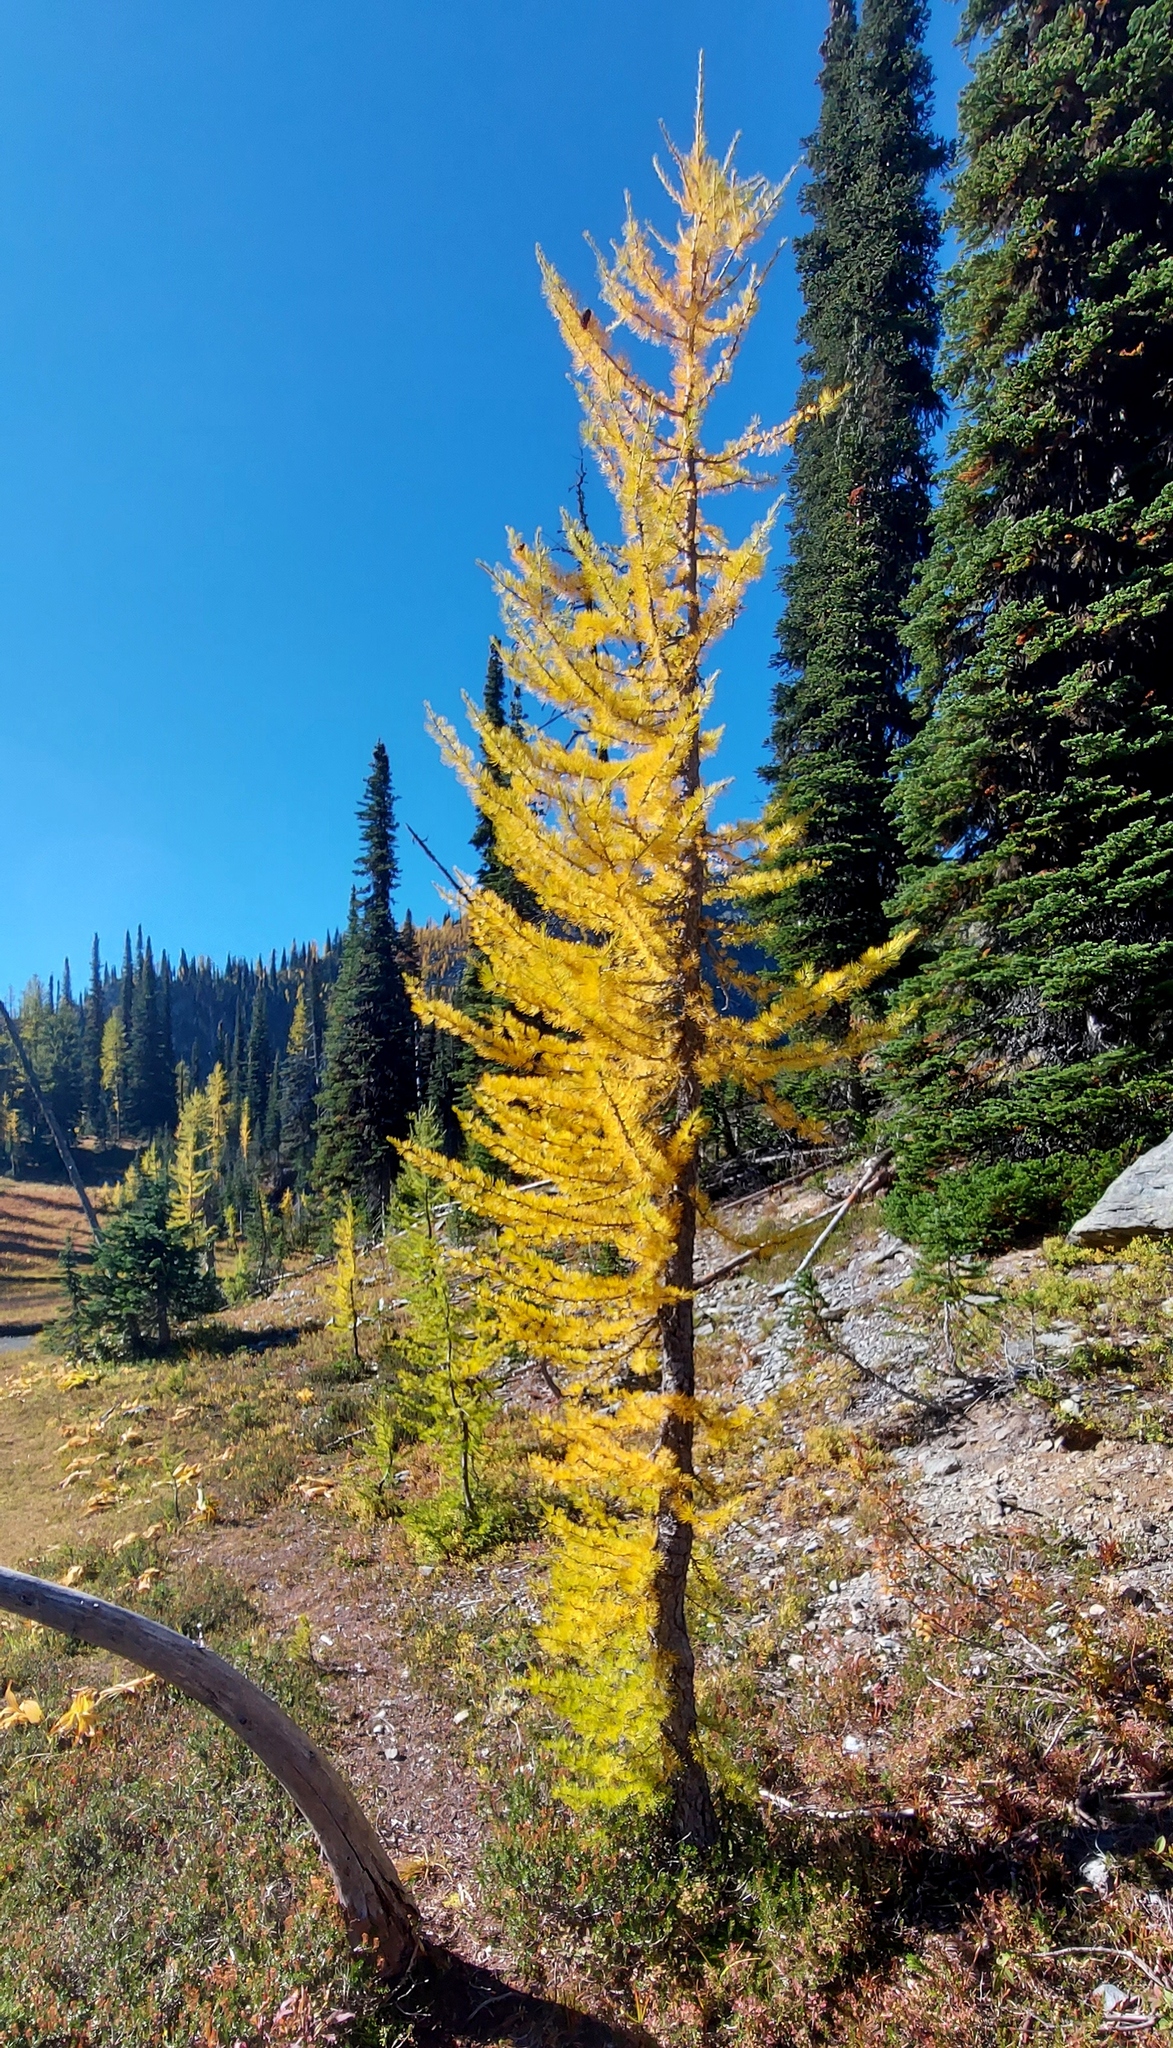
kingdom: Plantae
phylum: Tracheophyta
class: Pinopsida
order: Pinales
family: Pinaceae
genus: Larix
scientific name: Larix lyallii
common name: Alpine larch
